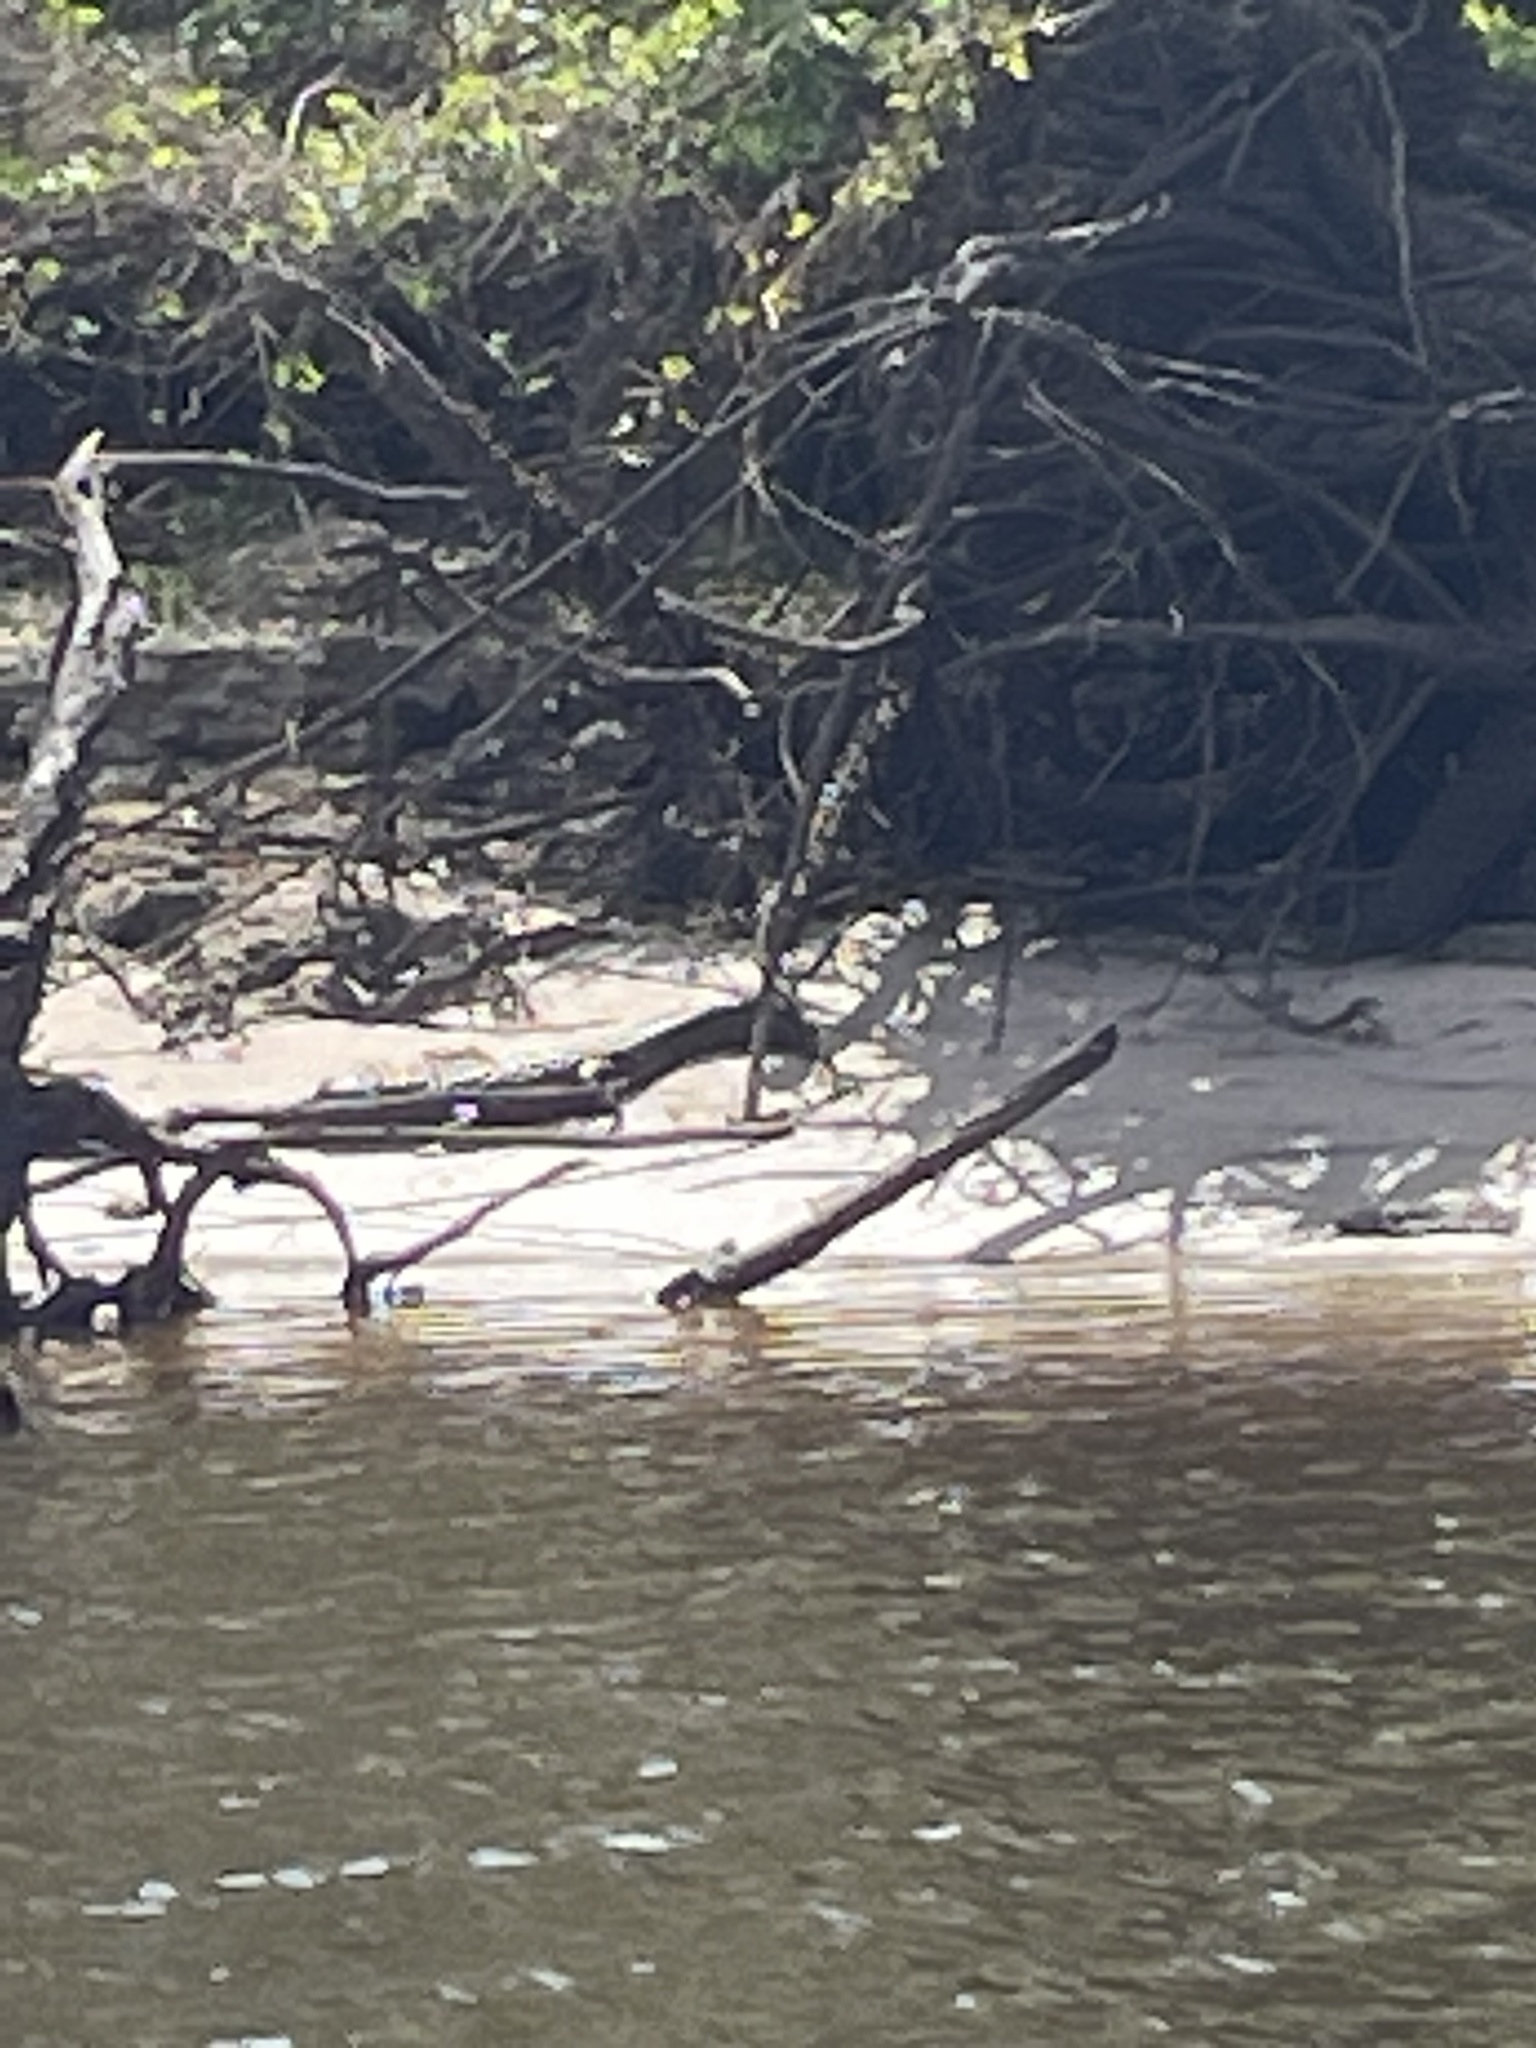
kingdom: Animalia
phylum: Chordata
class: Crocodylia
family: Alligatoridae
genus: Alligator
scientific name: Alligator mississippiensis
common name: American alligator
